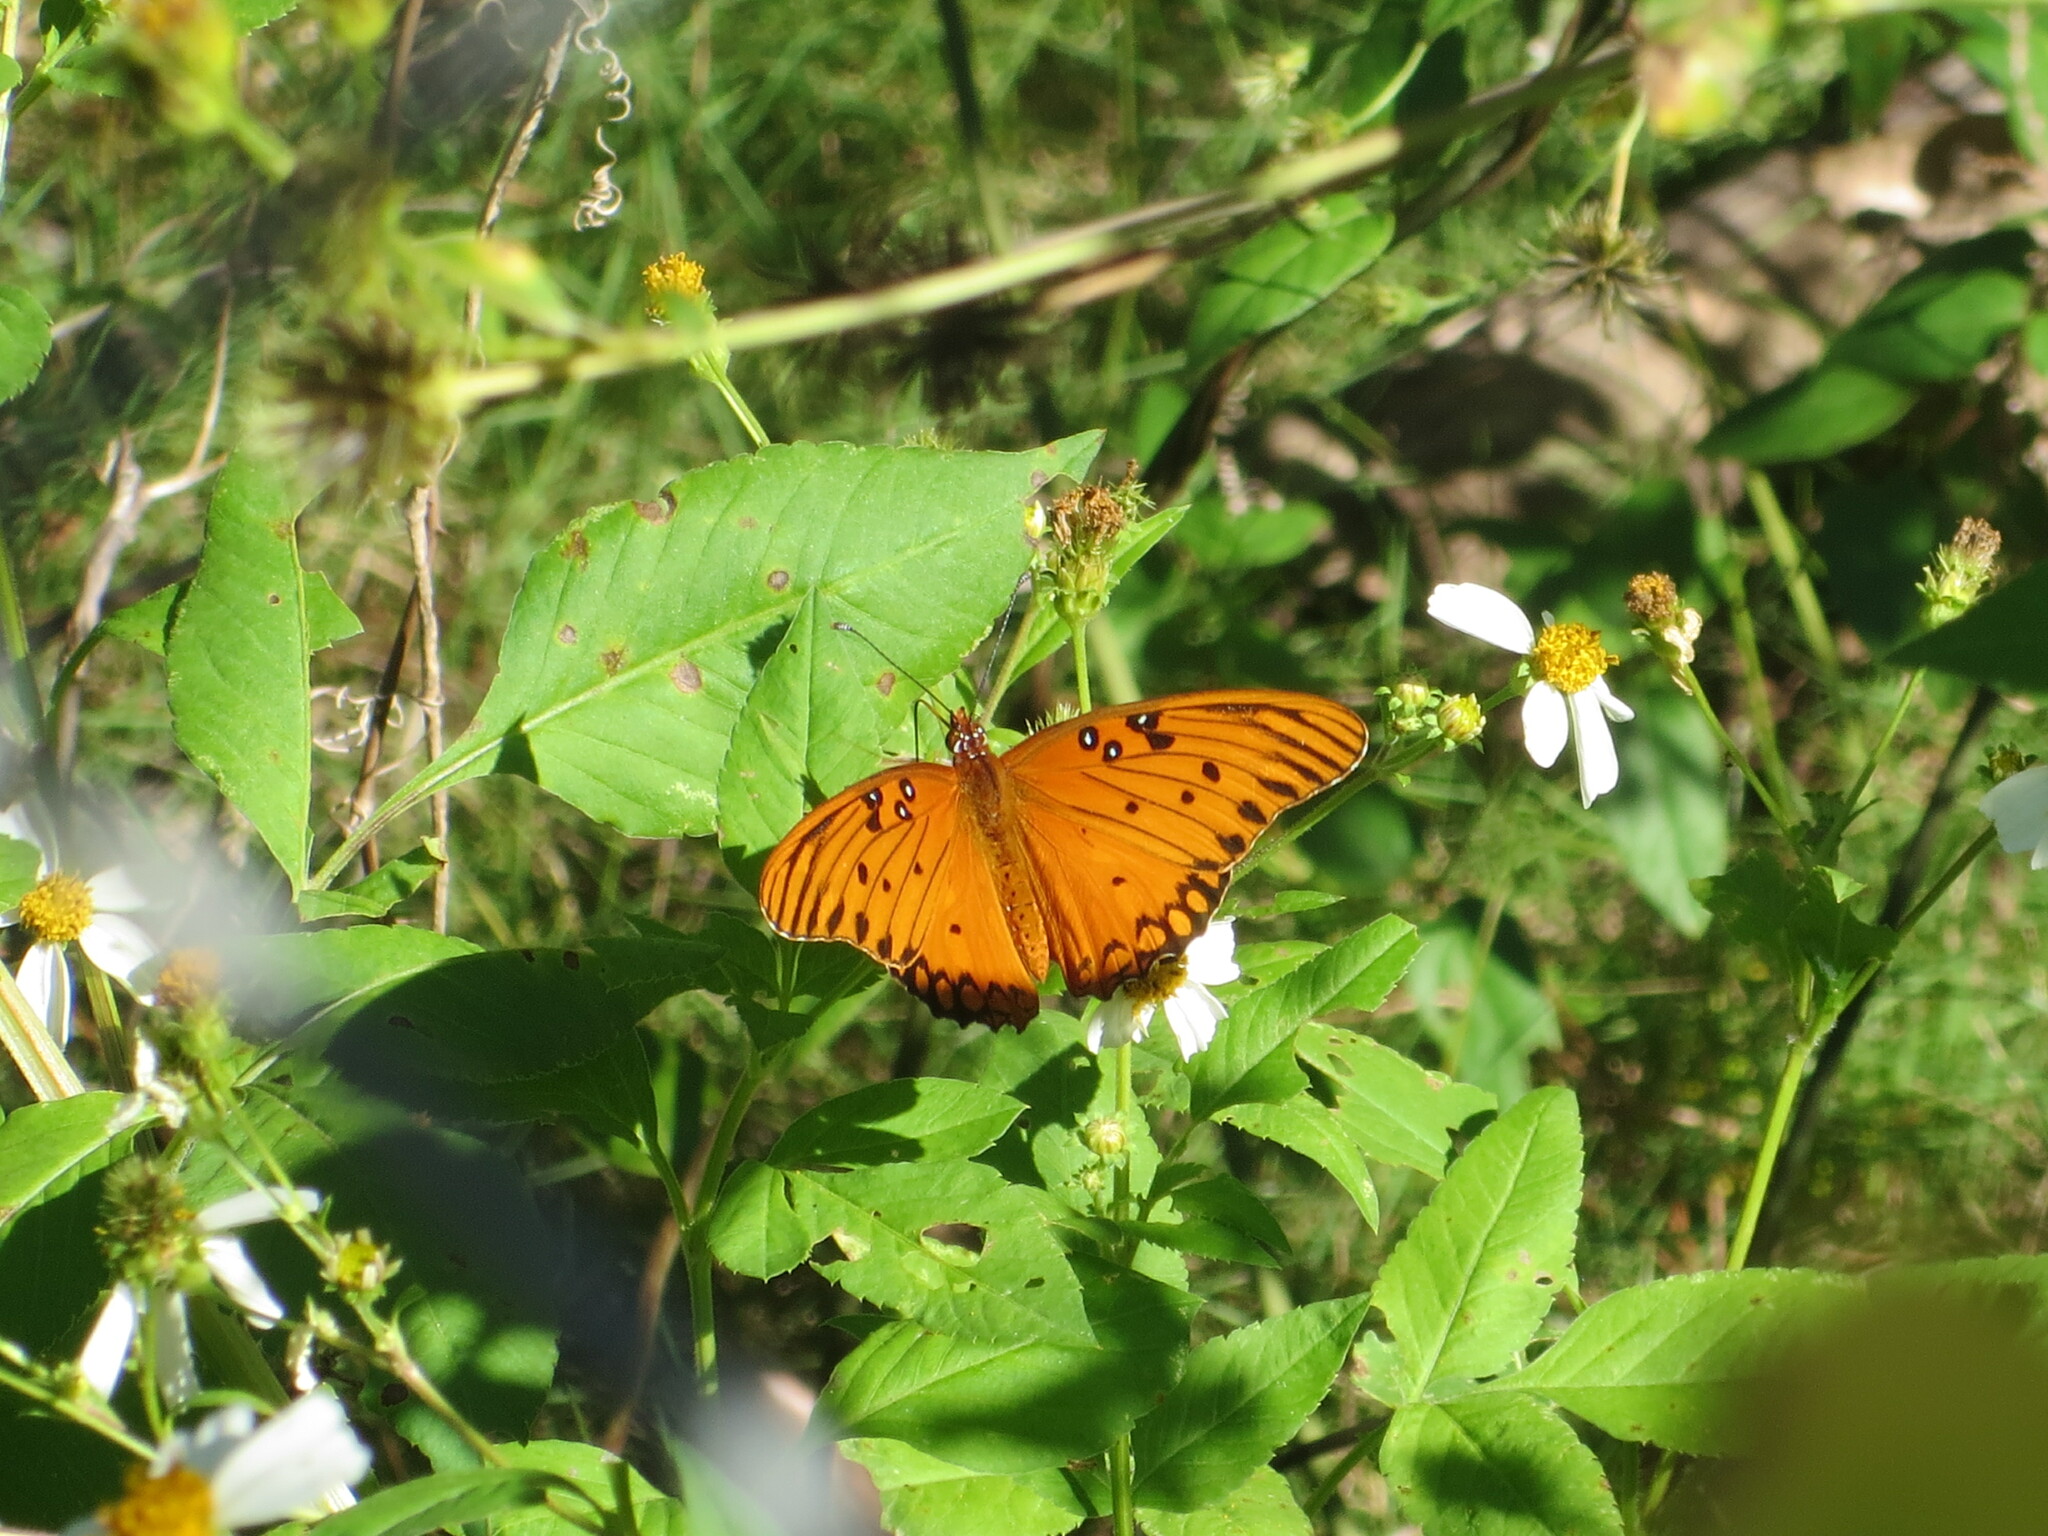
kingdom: Animalia
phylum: Arthropoda
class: Insecta
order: Lepidoptera
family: Nymphalidae
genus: Dione
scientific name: Dione vanillae
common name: Gulf fritillary
